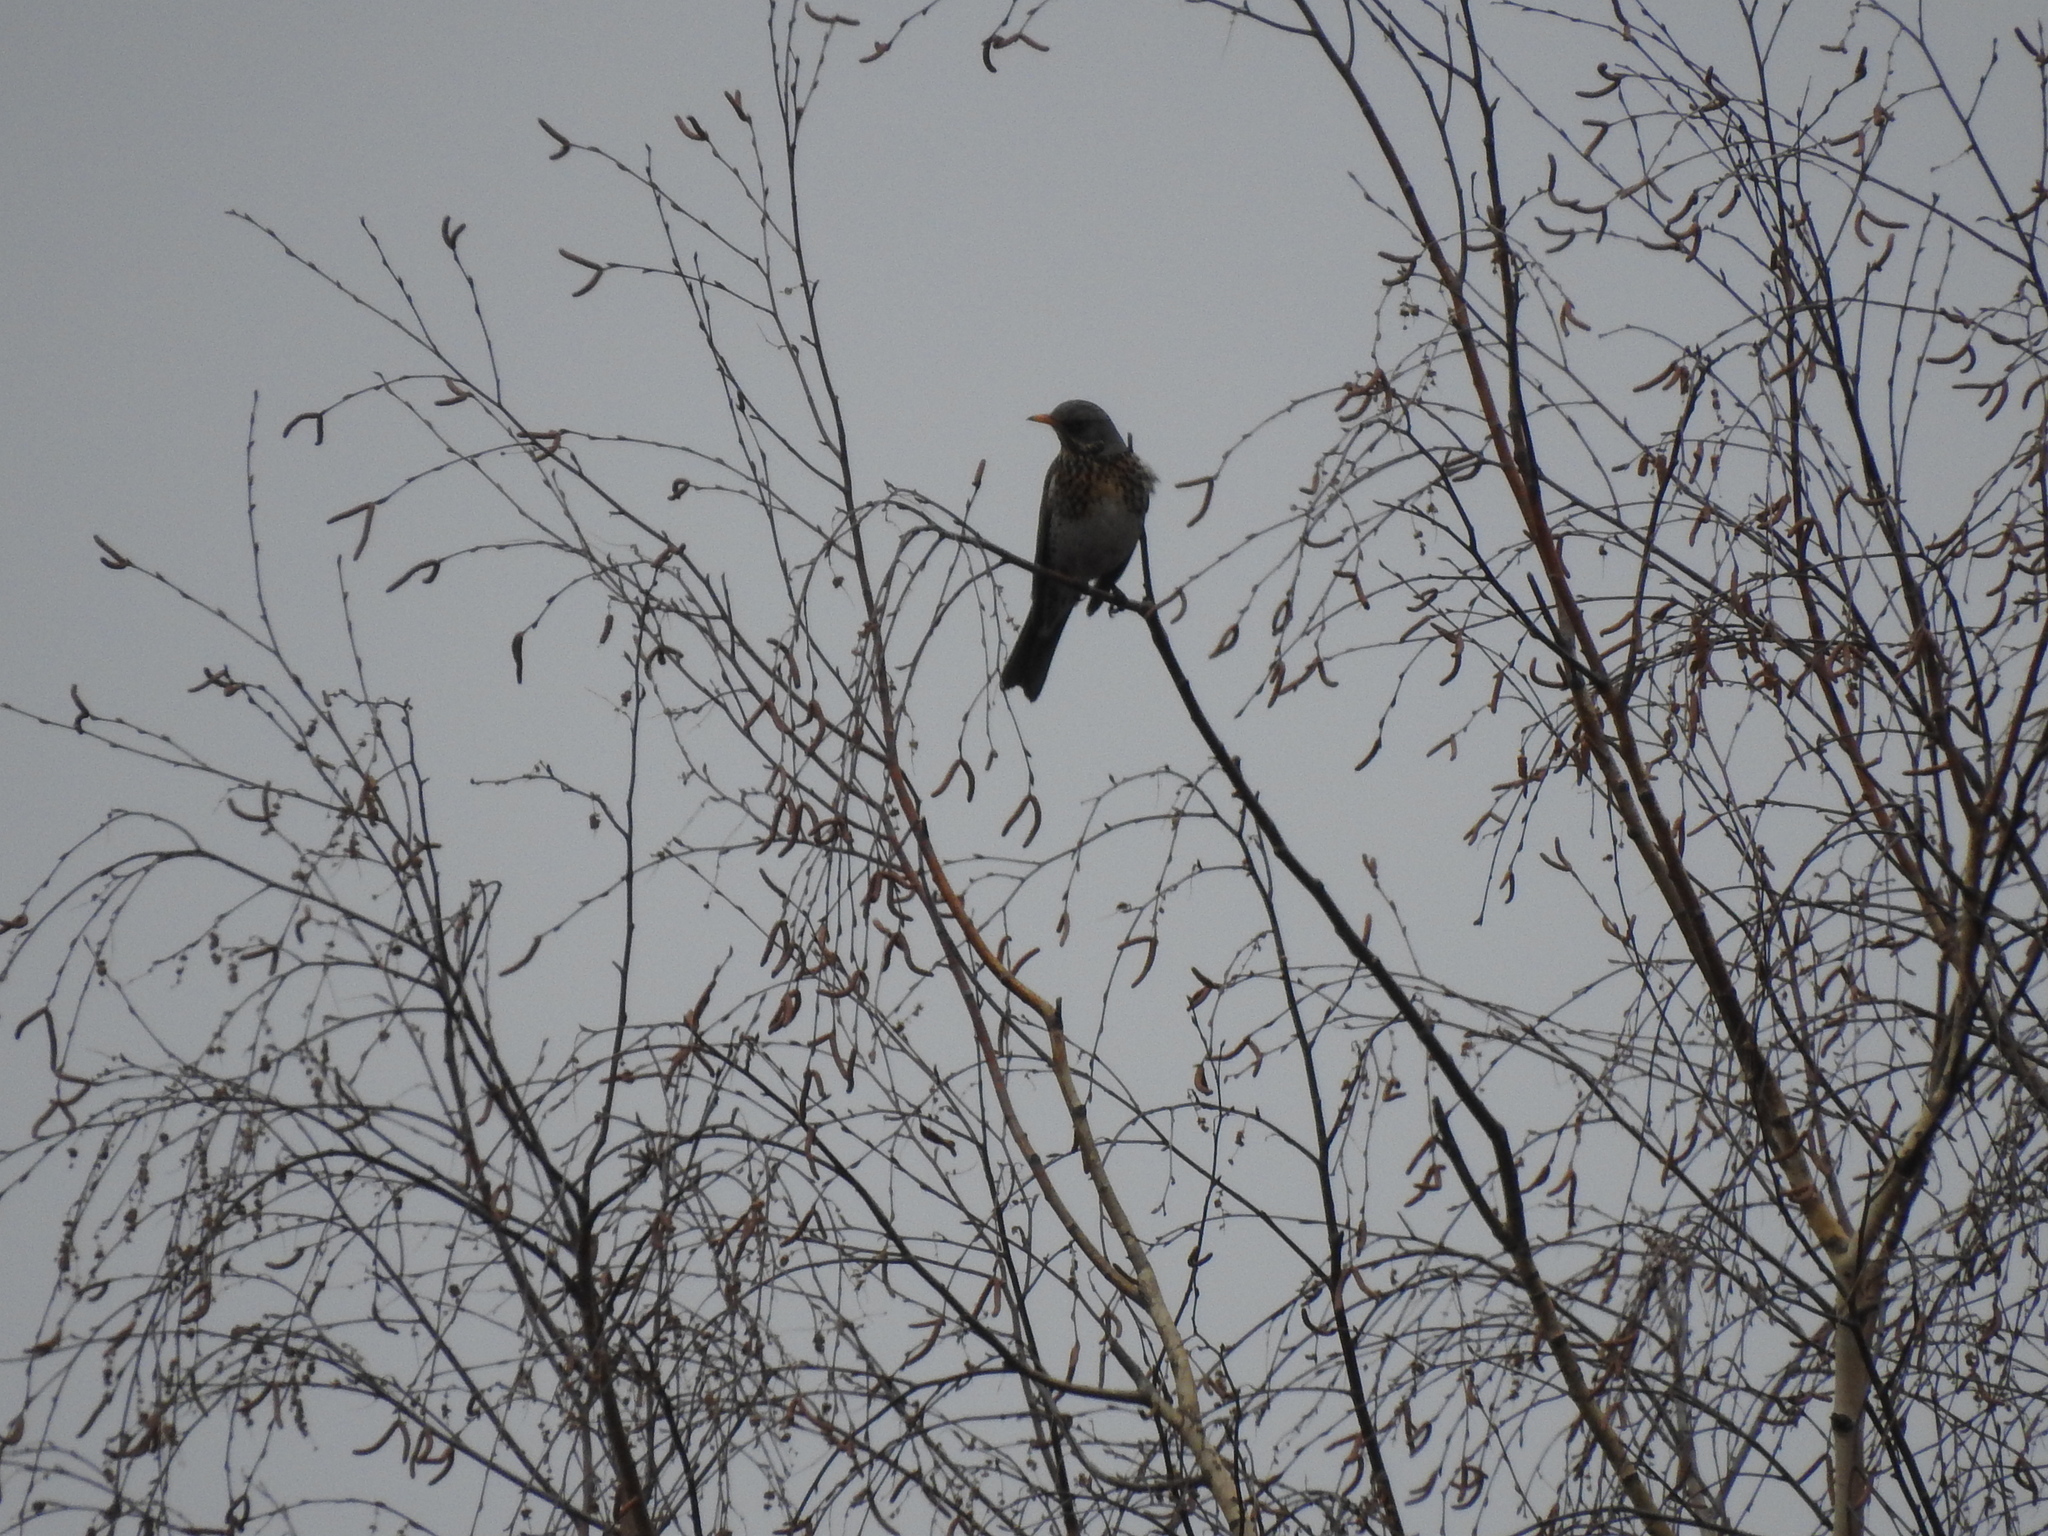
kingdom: Animalia
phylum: Chordata
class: Aves
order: Passeriformes
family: Turdidae
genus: Turdus
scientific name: Turdus pilaris
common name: Fieldfare
